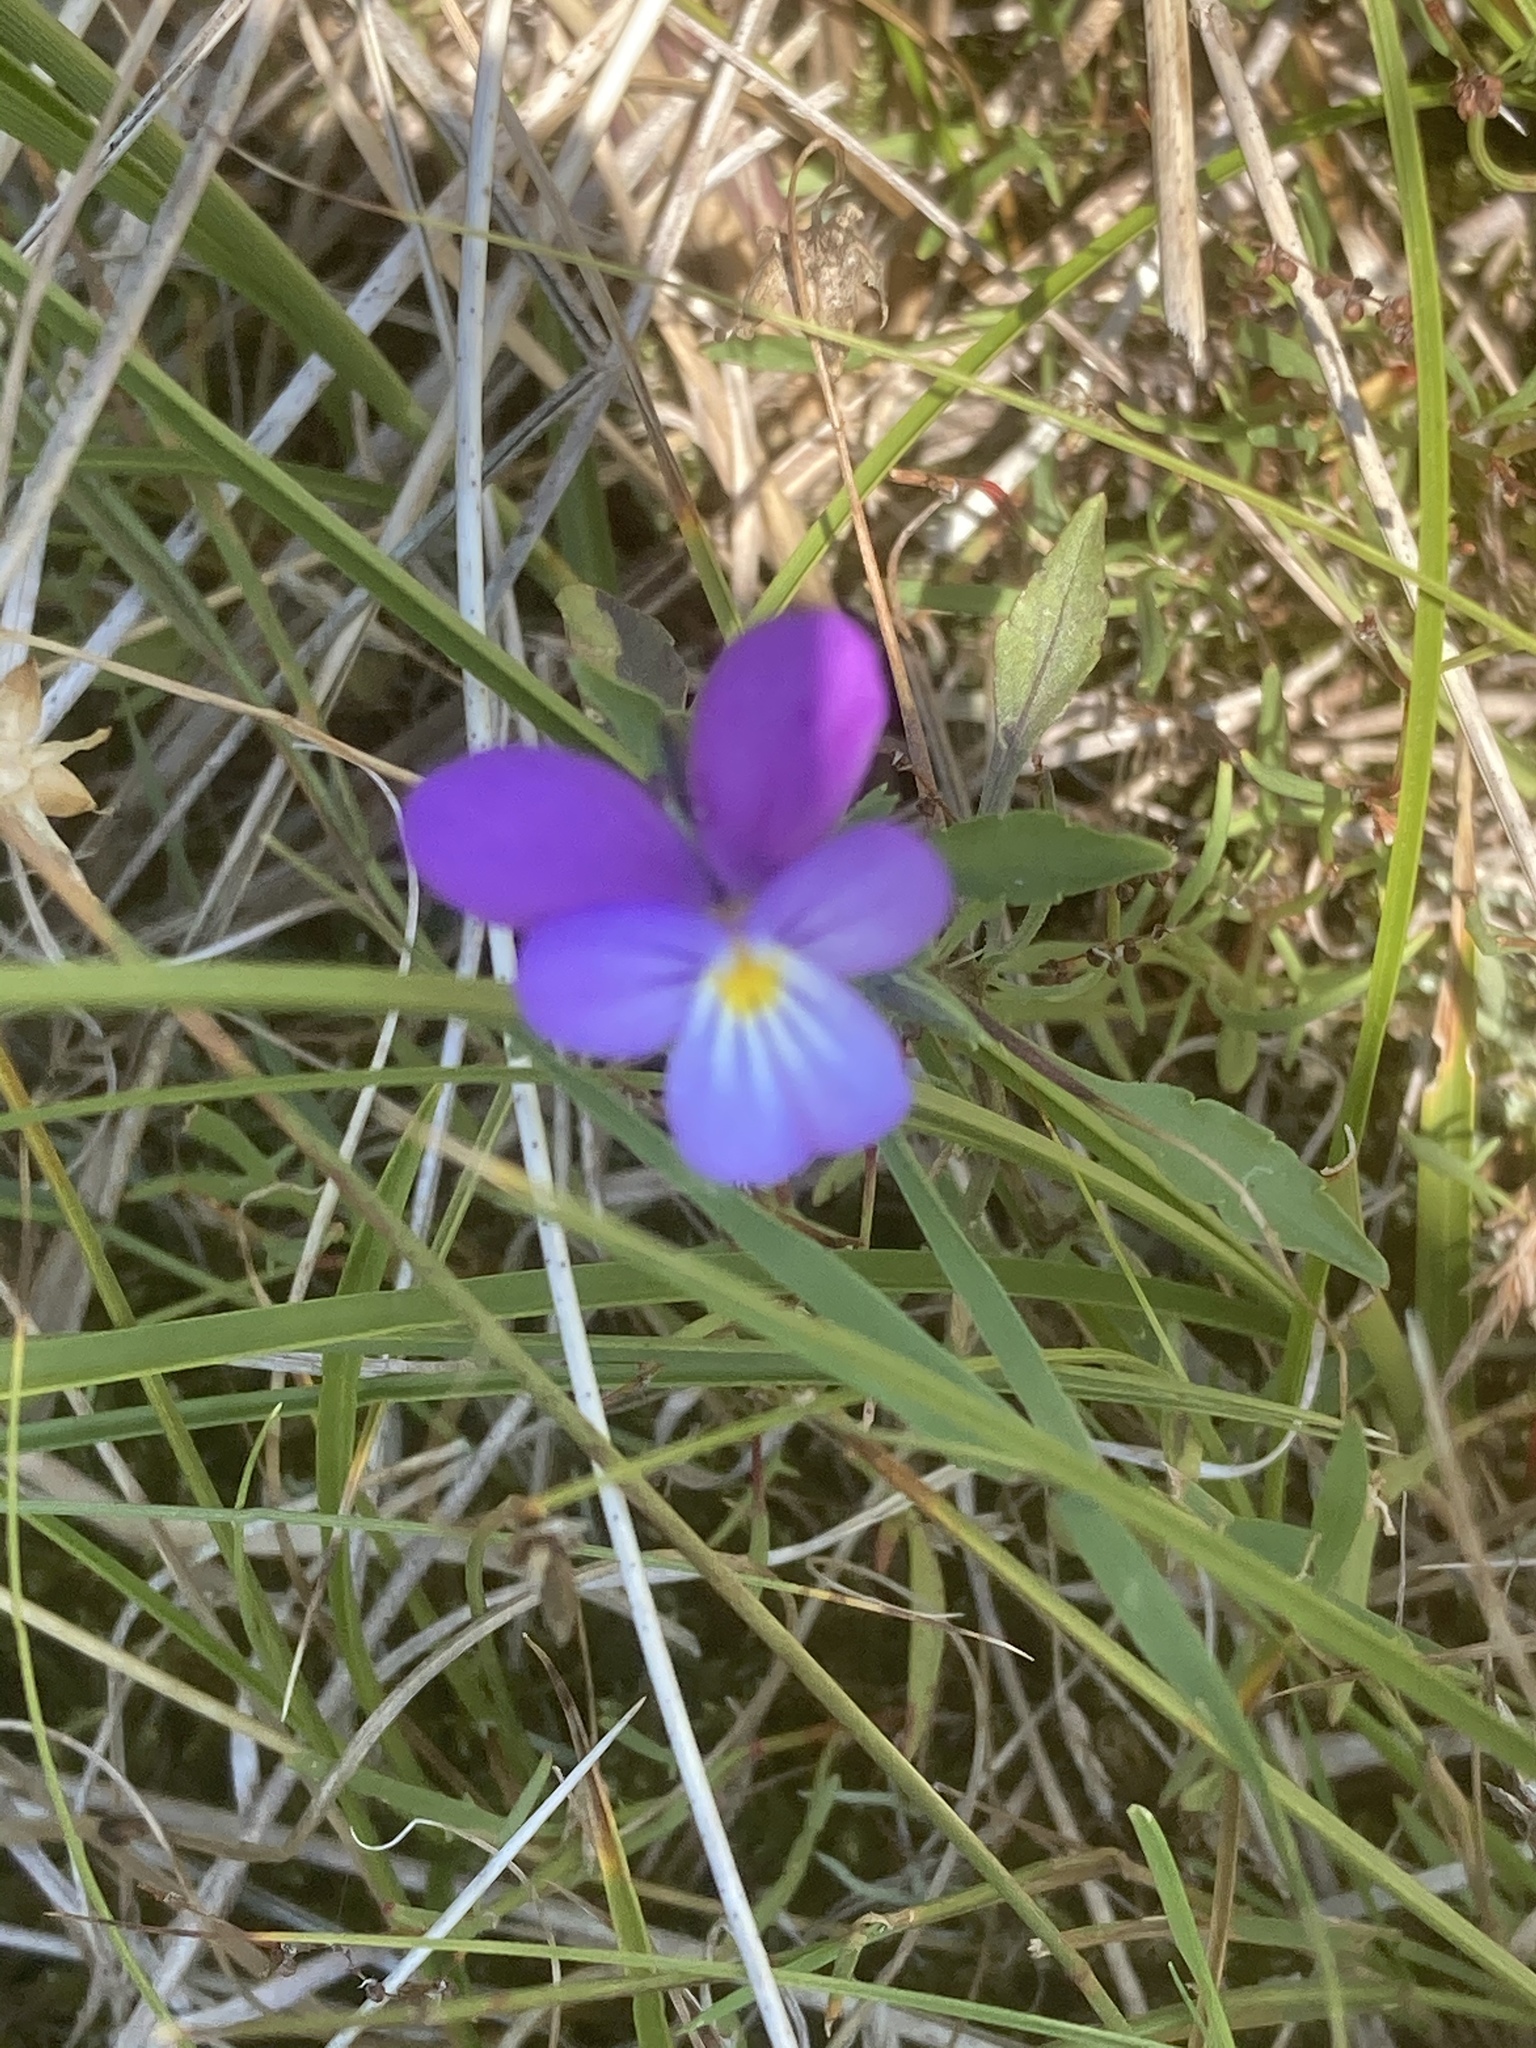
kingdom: Plantae
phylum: Tracheophyta
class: Magnoliopsida
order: Malpighiales
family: Violaceae
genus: Viola
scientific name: Viola tricolor
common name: Pansy
